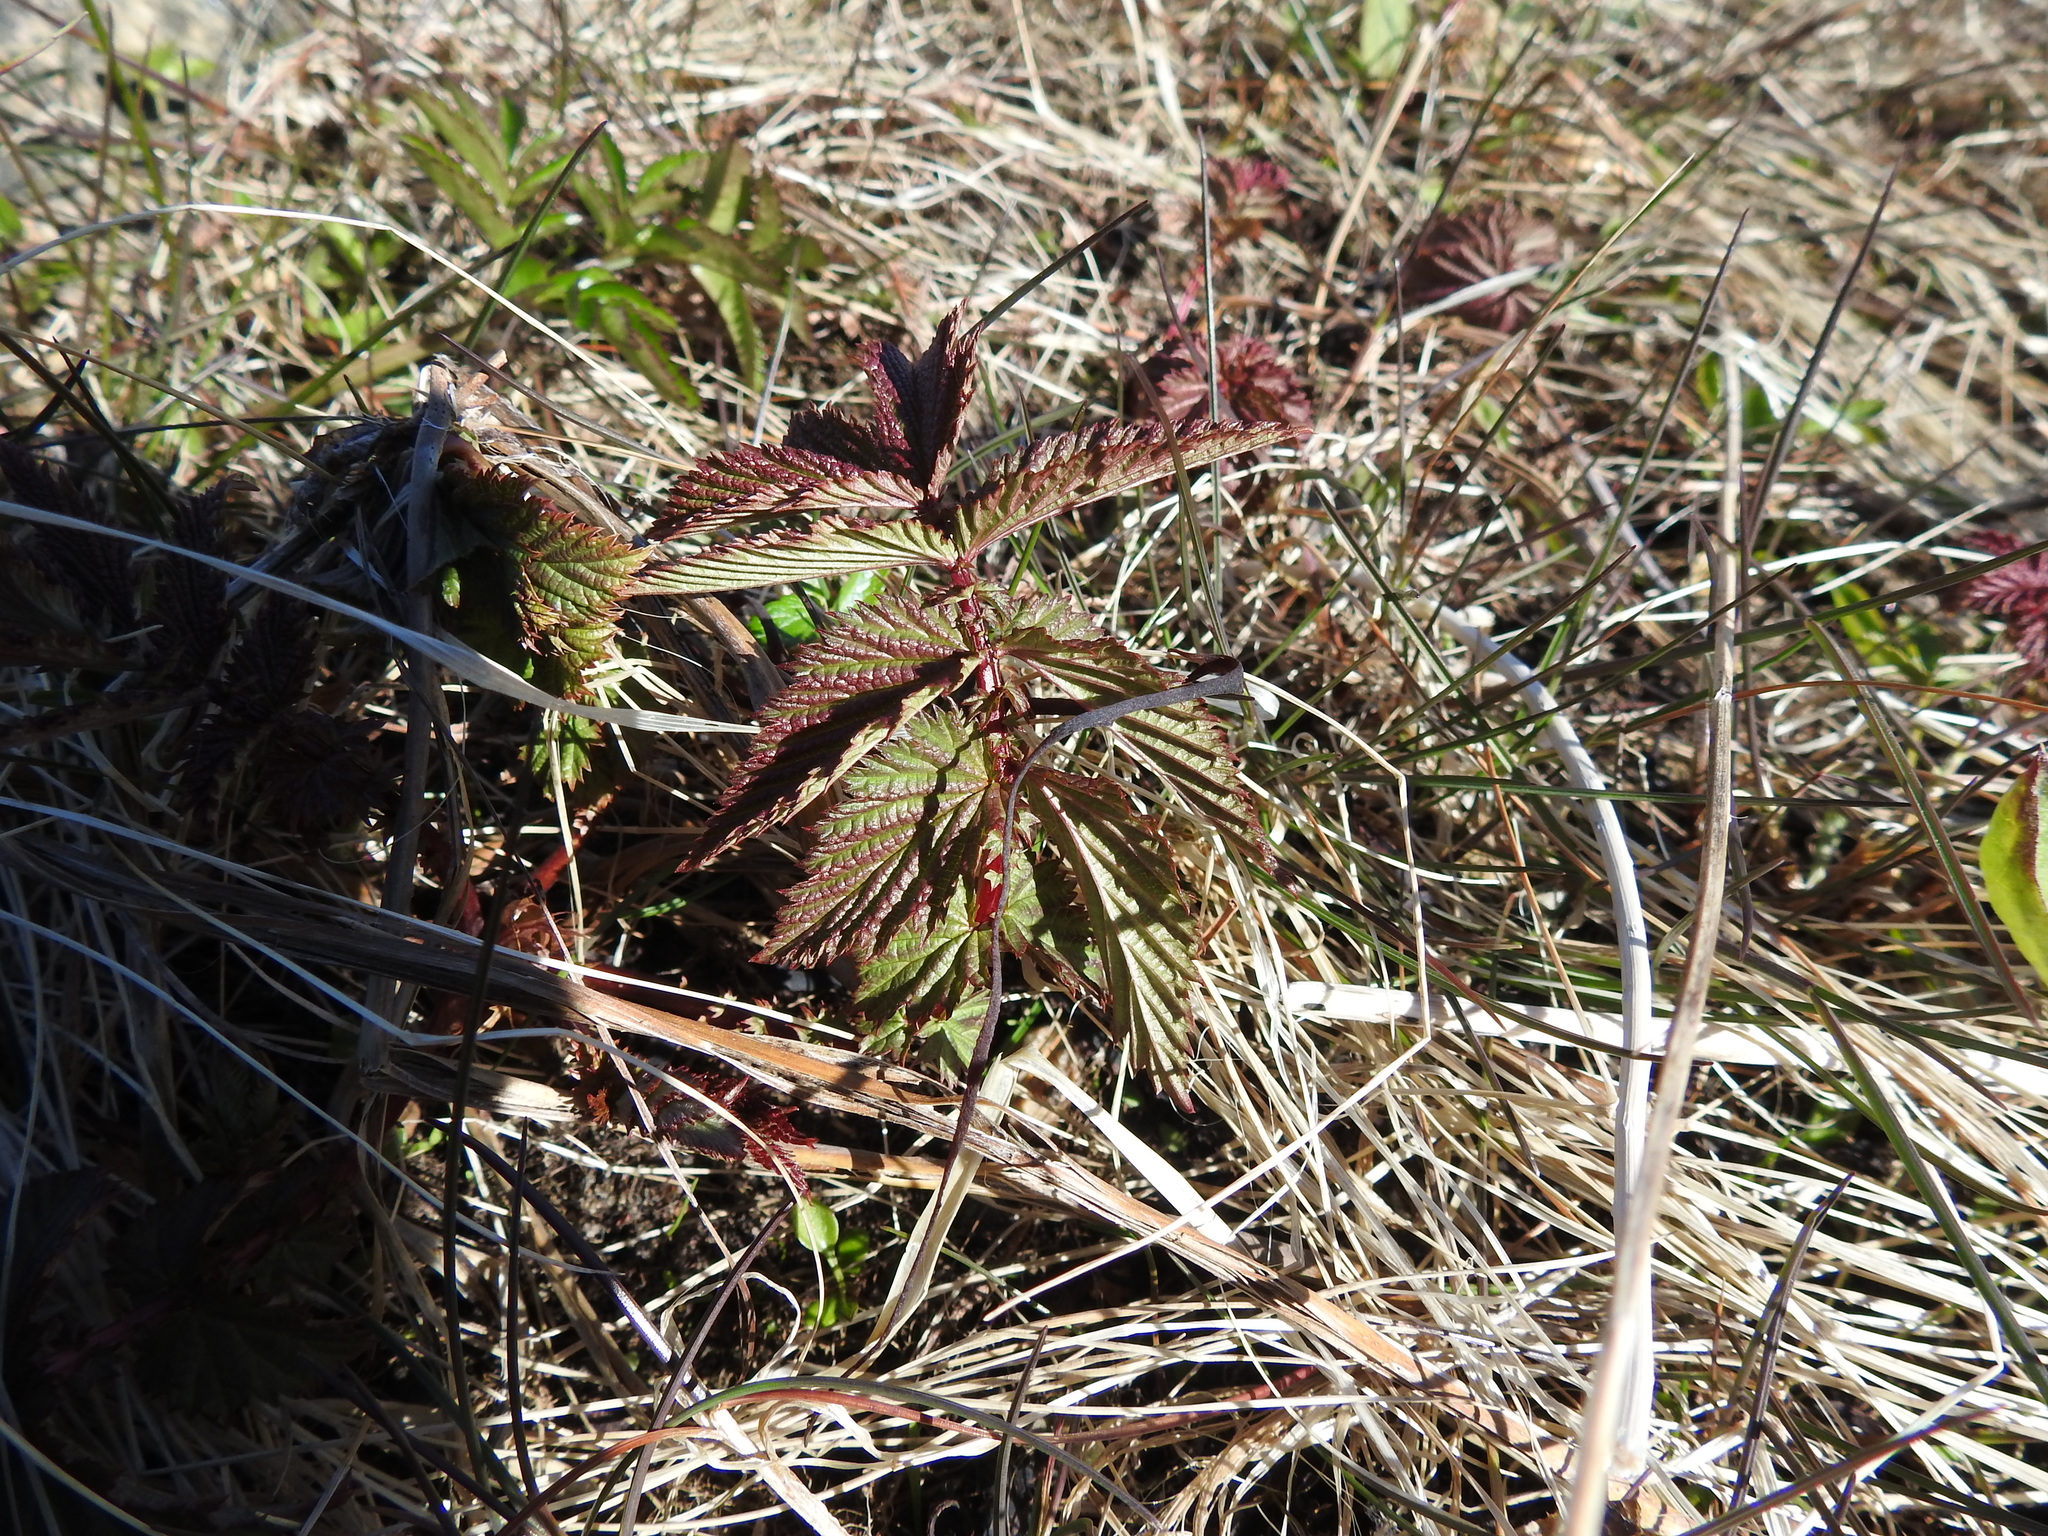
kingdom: Plantae
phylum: Tracheophyta
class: Magnoliopsida
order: Rosales
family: Rosaceae
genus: Filipendula
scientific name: Filipendula ulmaria
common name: Meadowsweet
